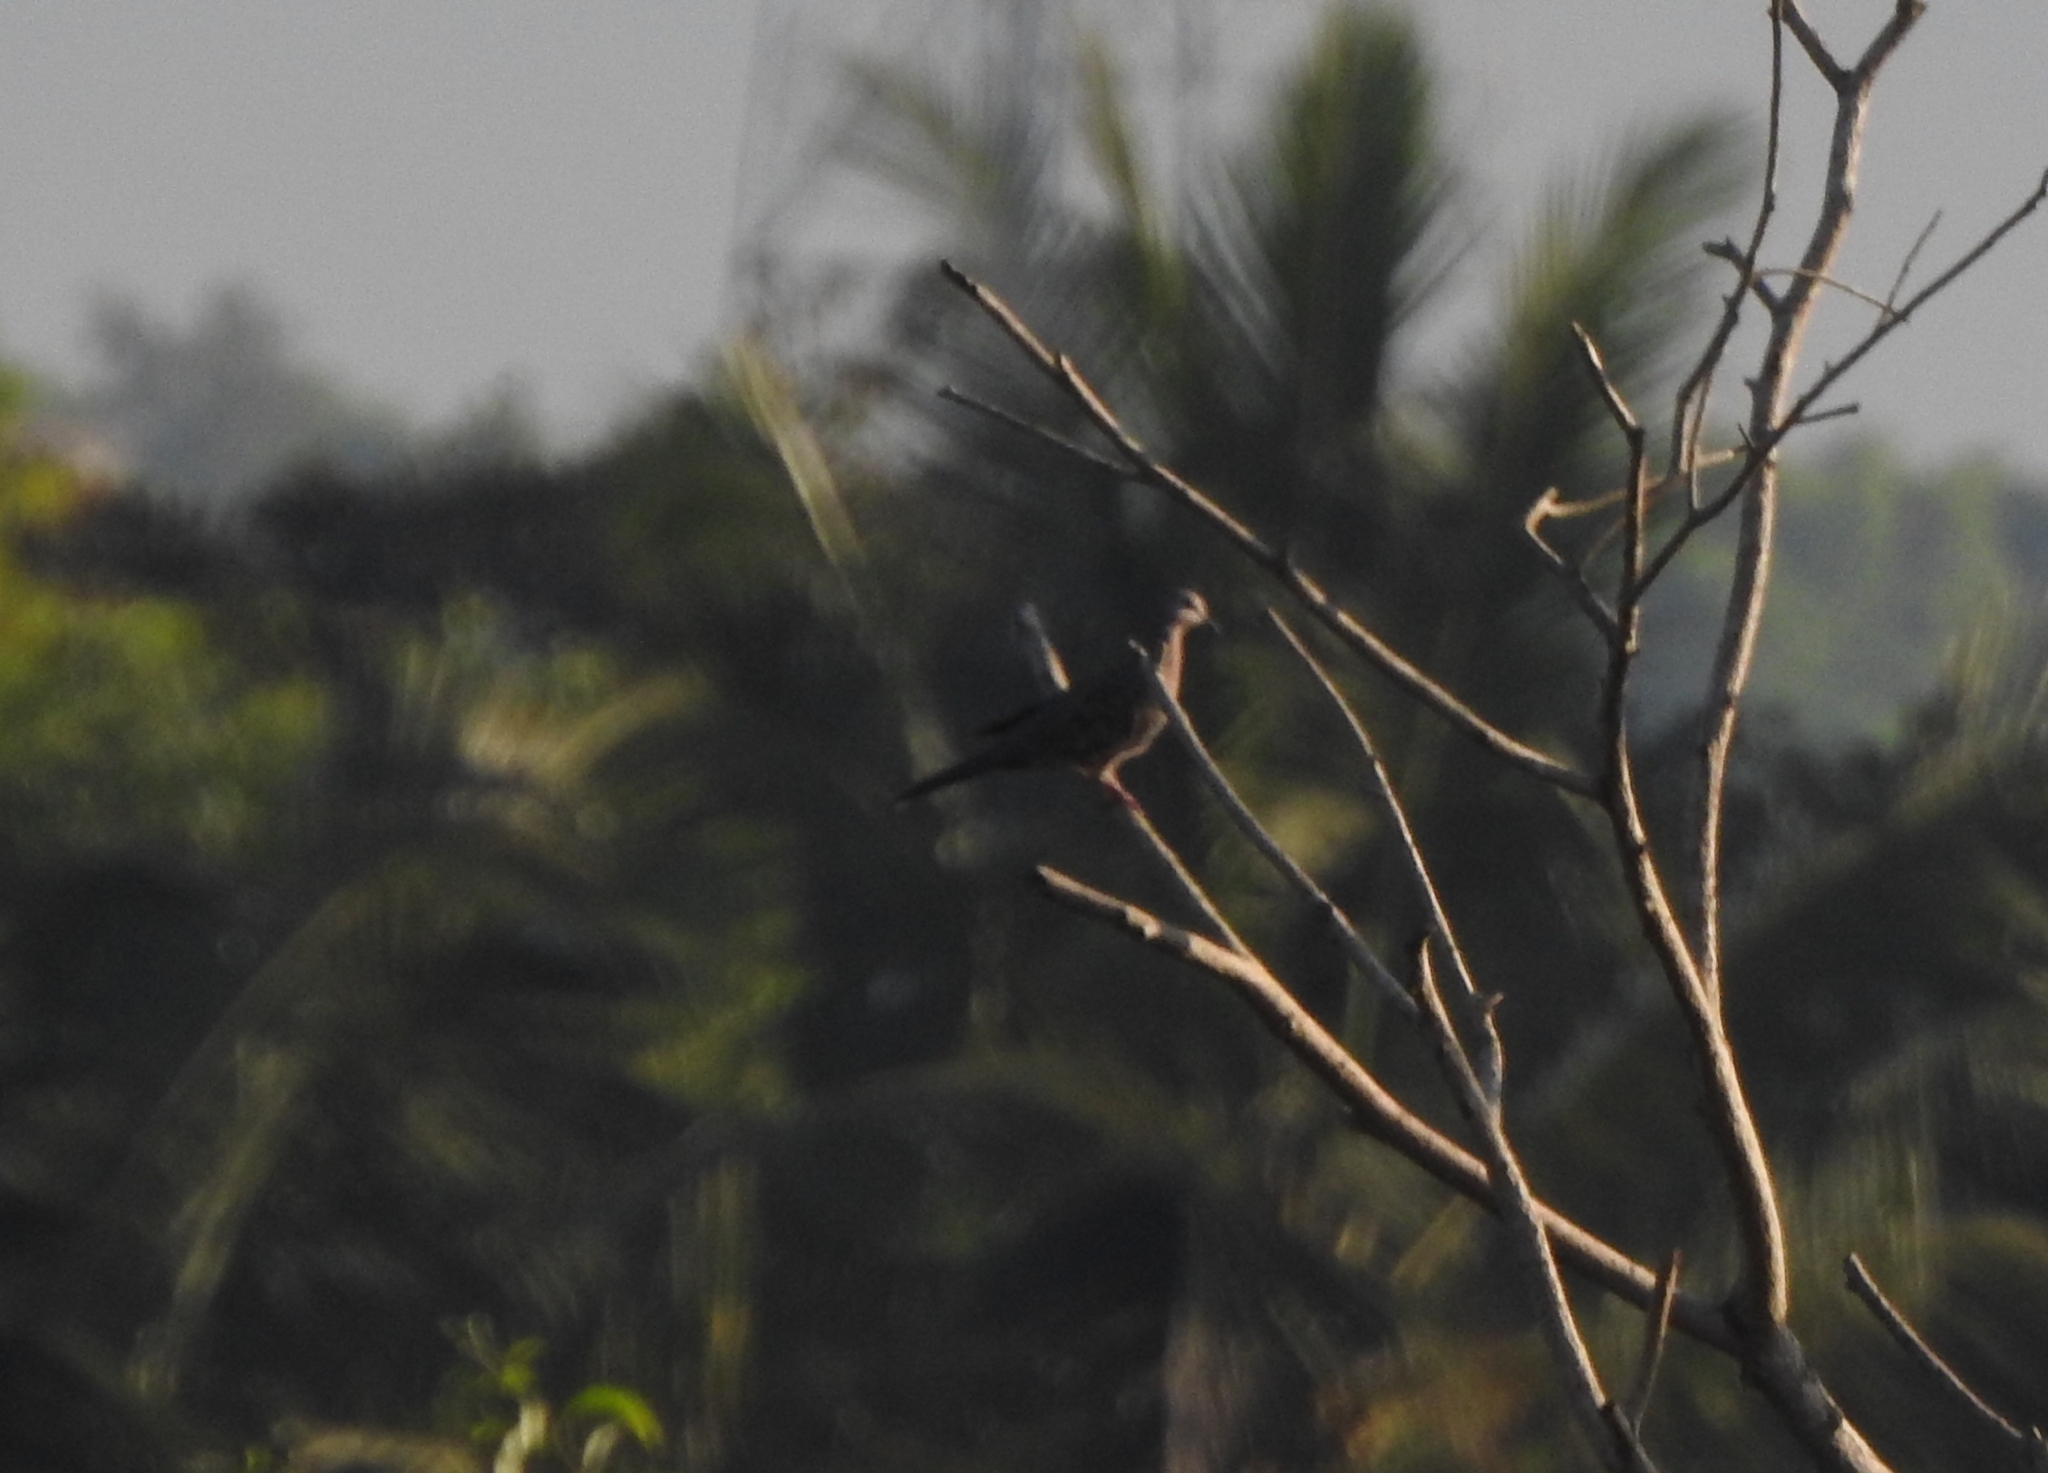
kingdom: Animalia
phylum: Chordata
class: Aves
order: Columbiformes
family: Columbidae
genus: Spilopelia
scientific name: Spilopelia chinensis
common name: Spotted dove
